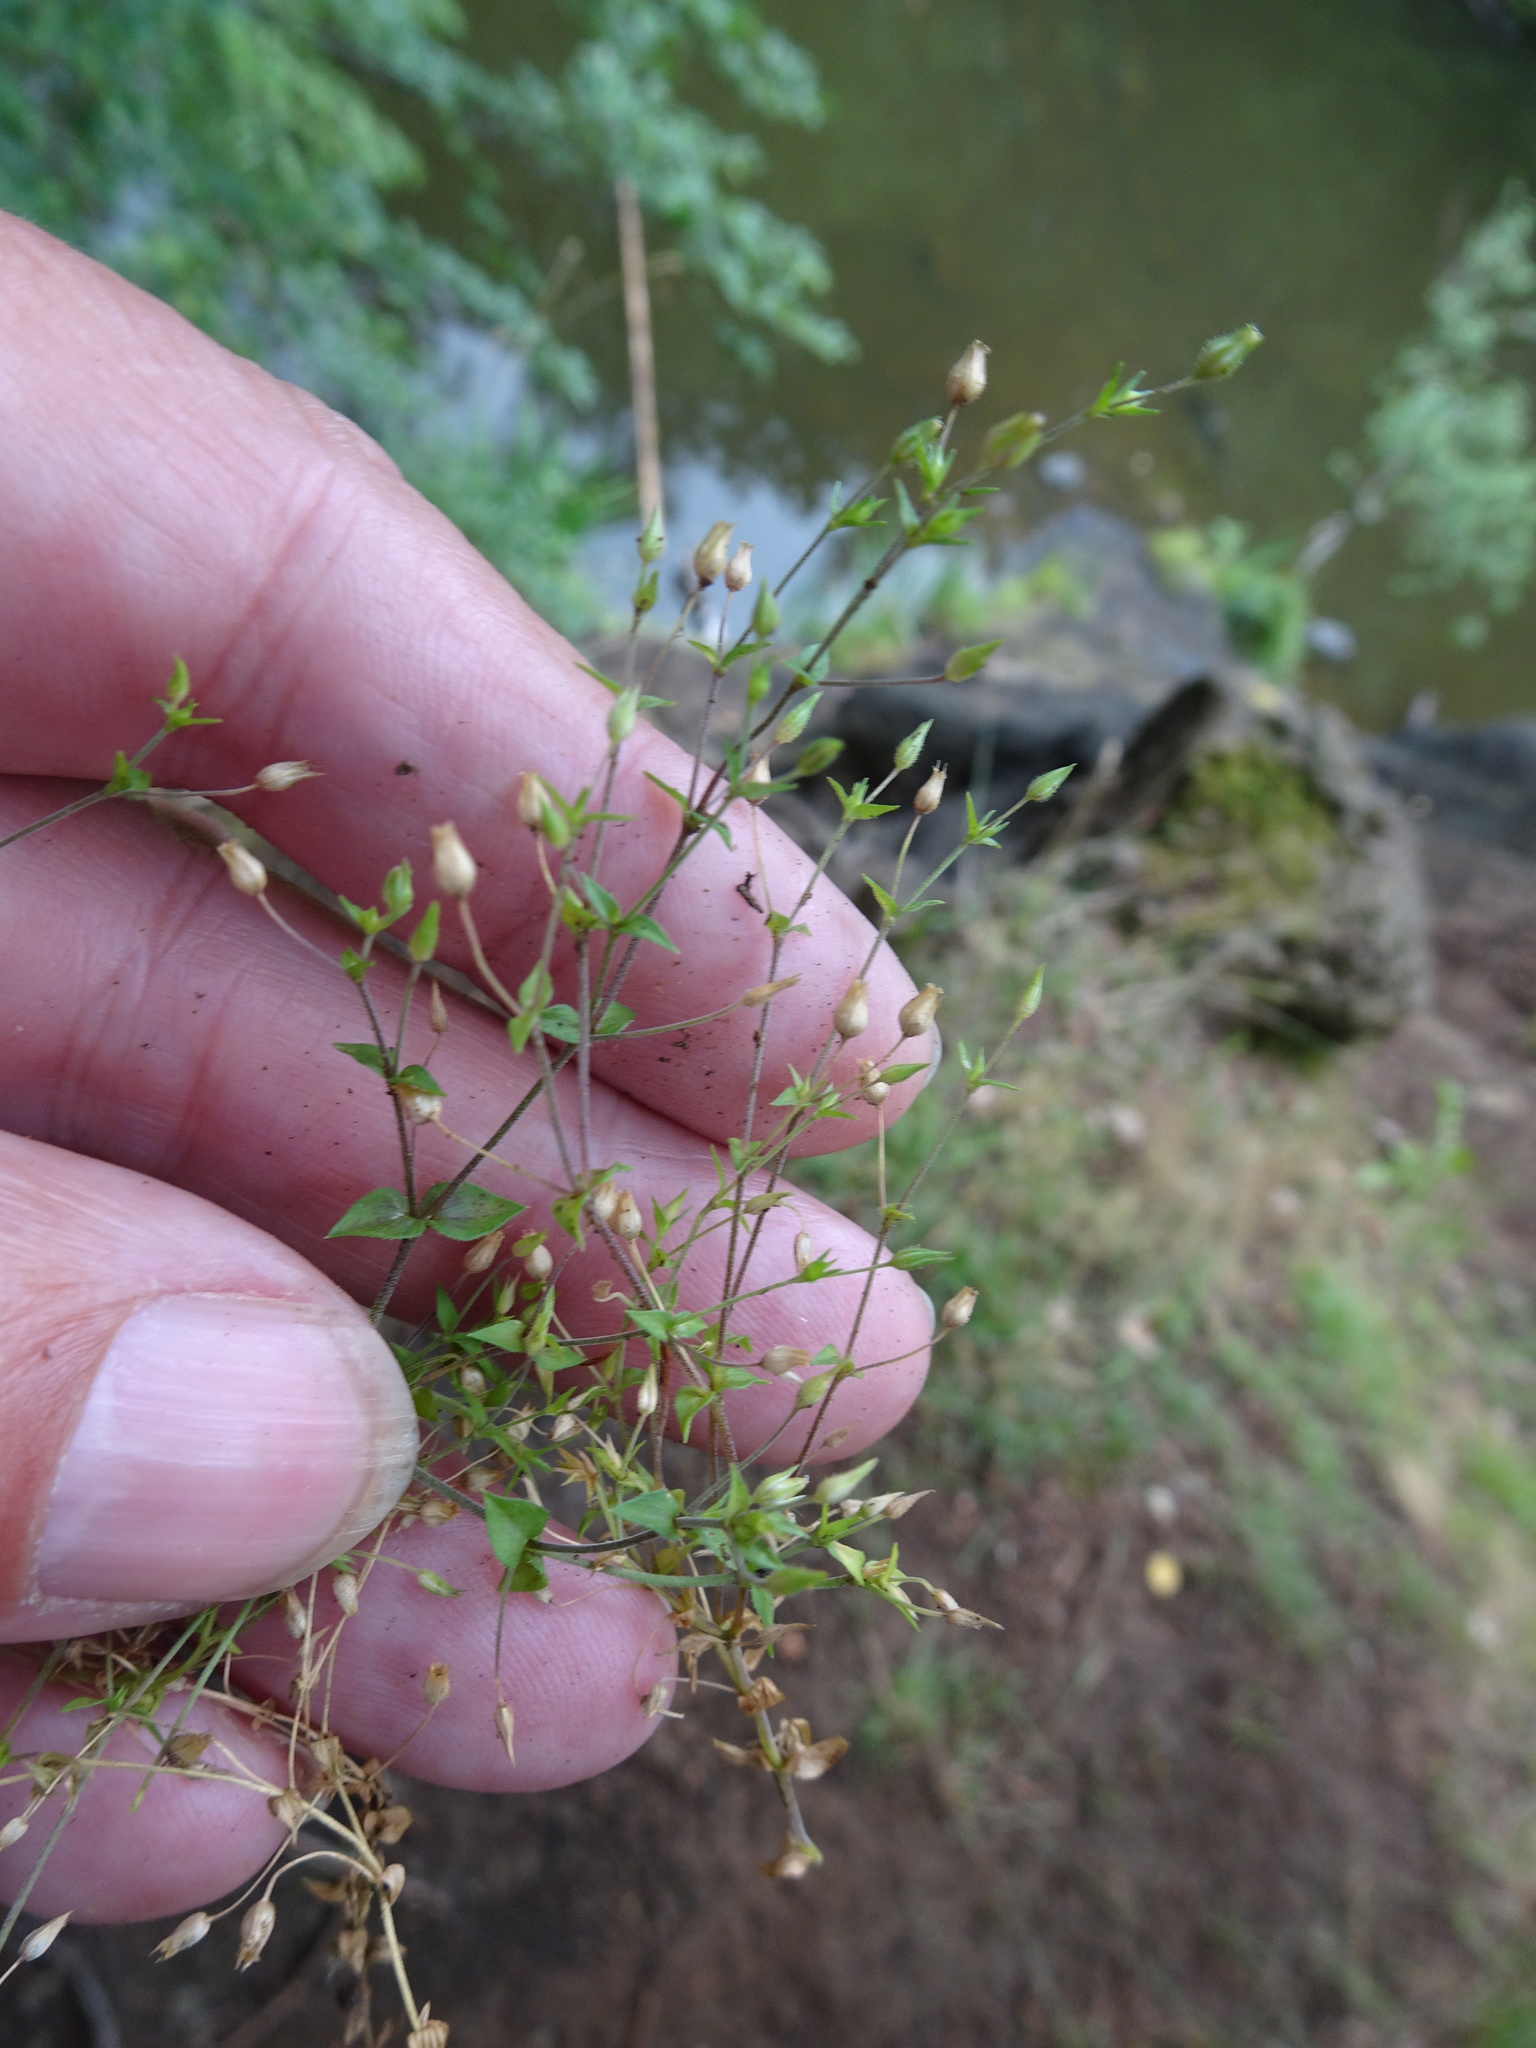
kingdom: Plantae
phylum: Tracheophyta
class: Magnoliopsida
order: Caryophyllales
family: Caryophyllaceae
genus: Arenaria
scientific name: Arenaria serpyllifolia
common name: Thyme-leaved sandwort
